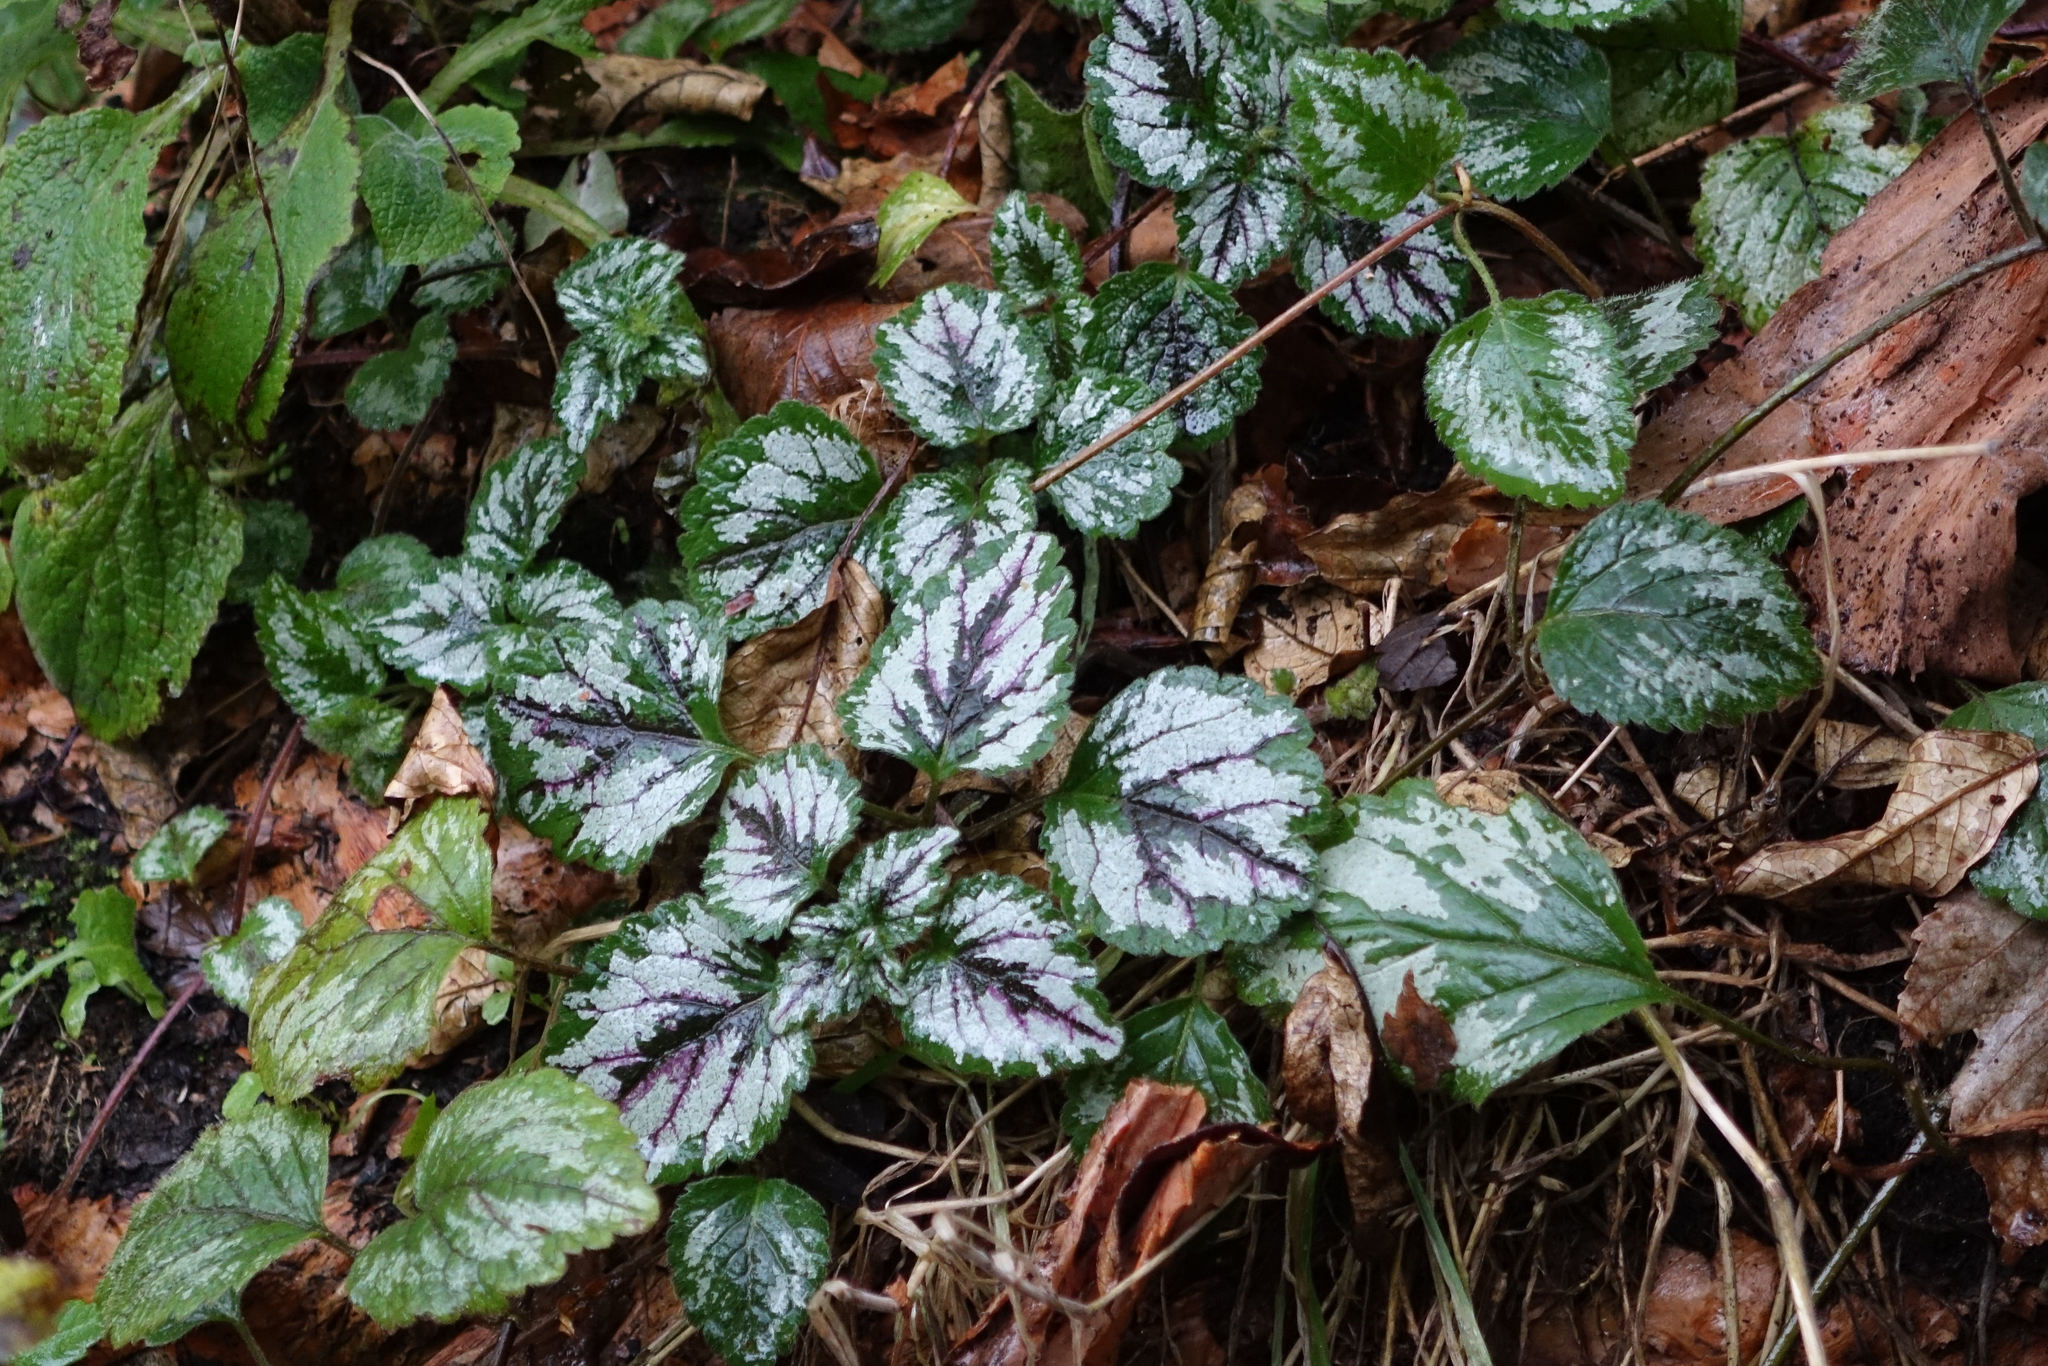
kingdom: Plantae
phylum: Tracheophyta
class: Magnoliopsida
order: Lamiales
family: Lamiaceae
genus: Lamium
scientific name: Lamium galeobdolon
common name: Yellow archangel
